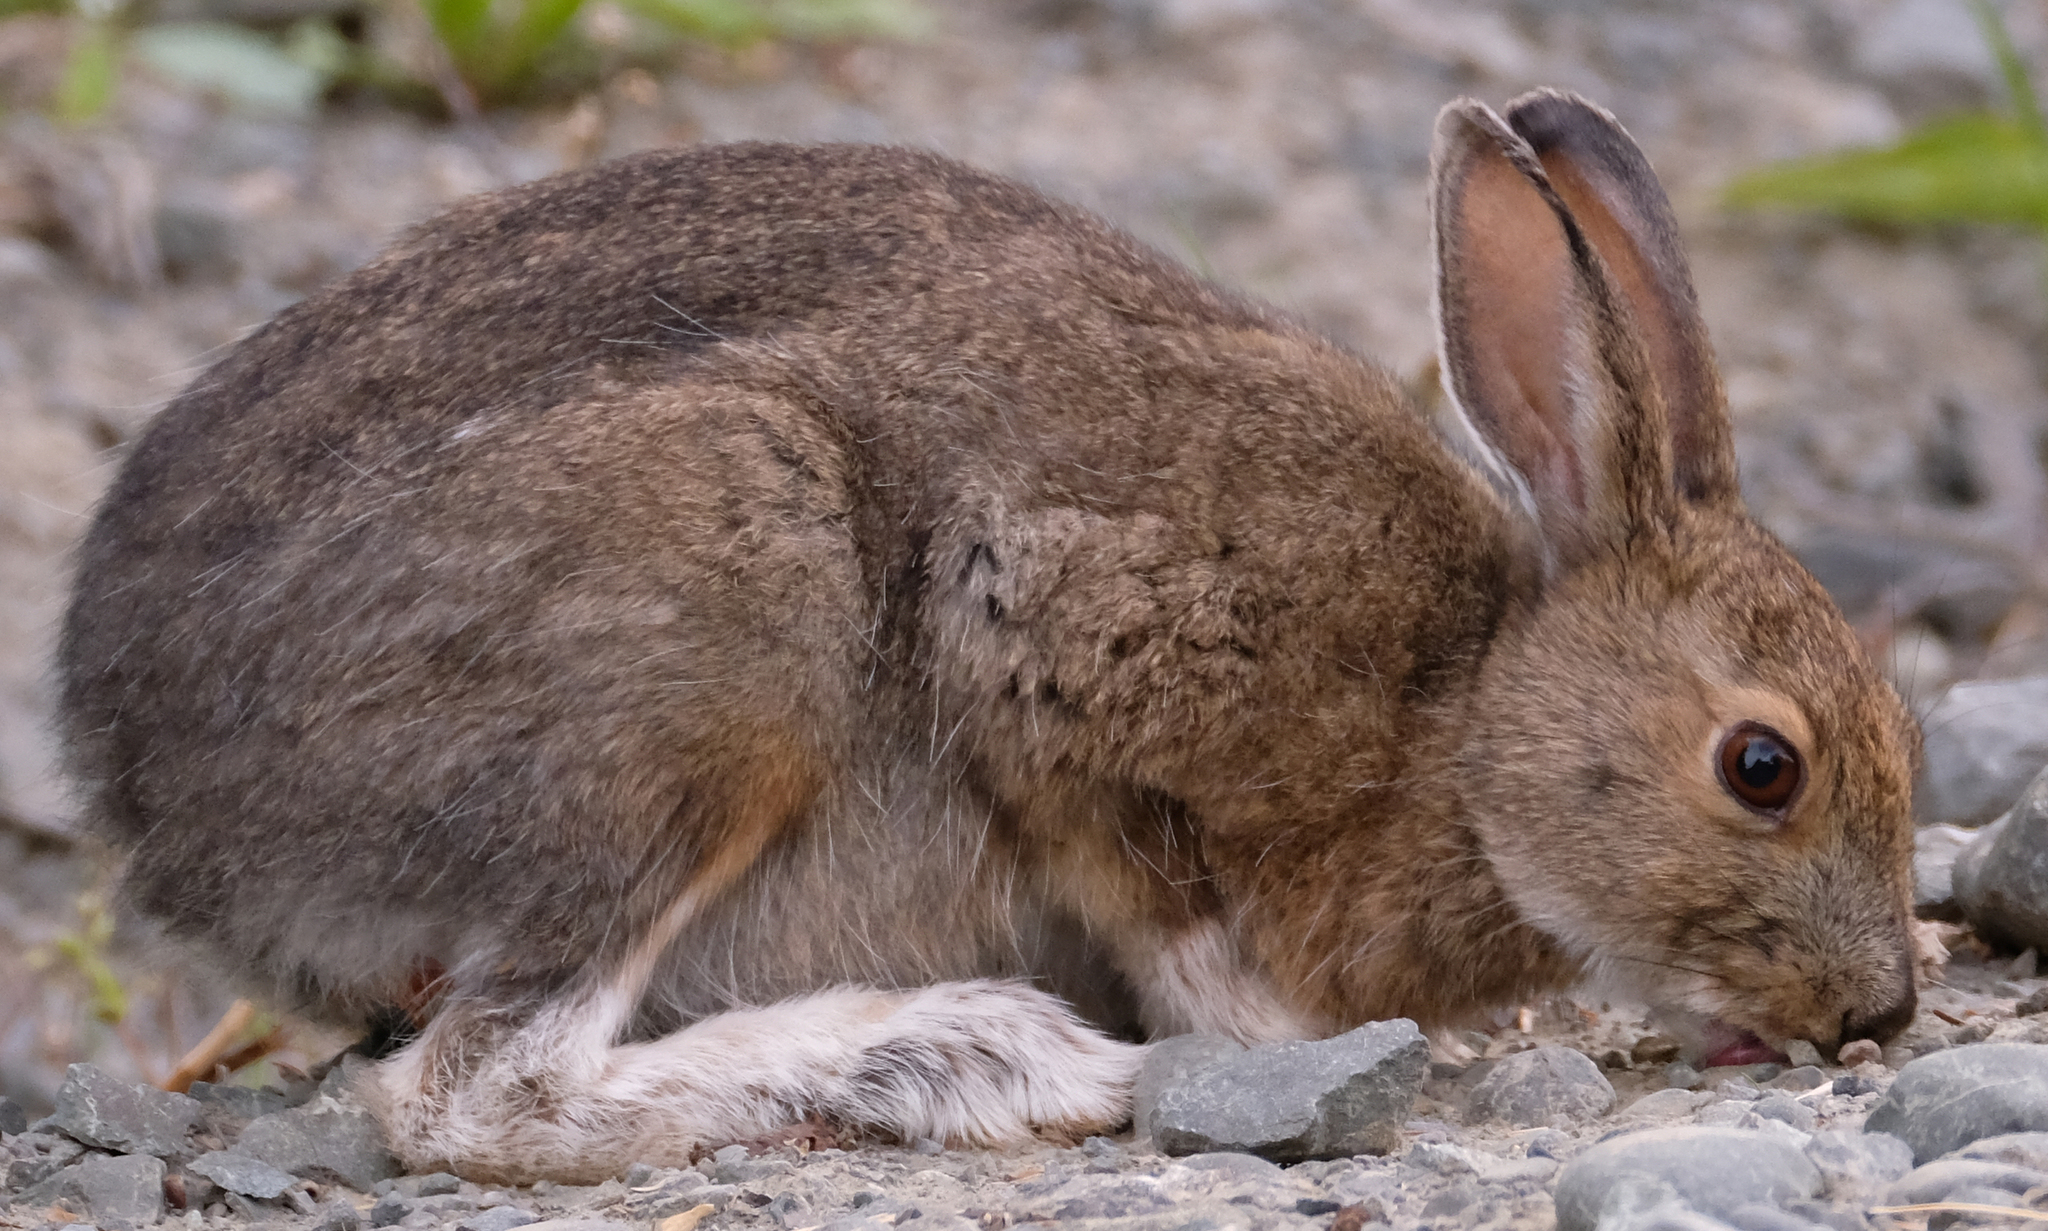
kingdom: Animalia
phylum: Chordata
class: Mammalia
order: Lagomorpha
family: Leporidae
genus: Lepus
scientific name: Lepus americanus
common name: Snowshoe hare
